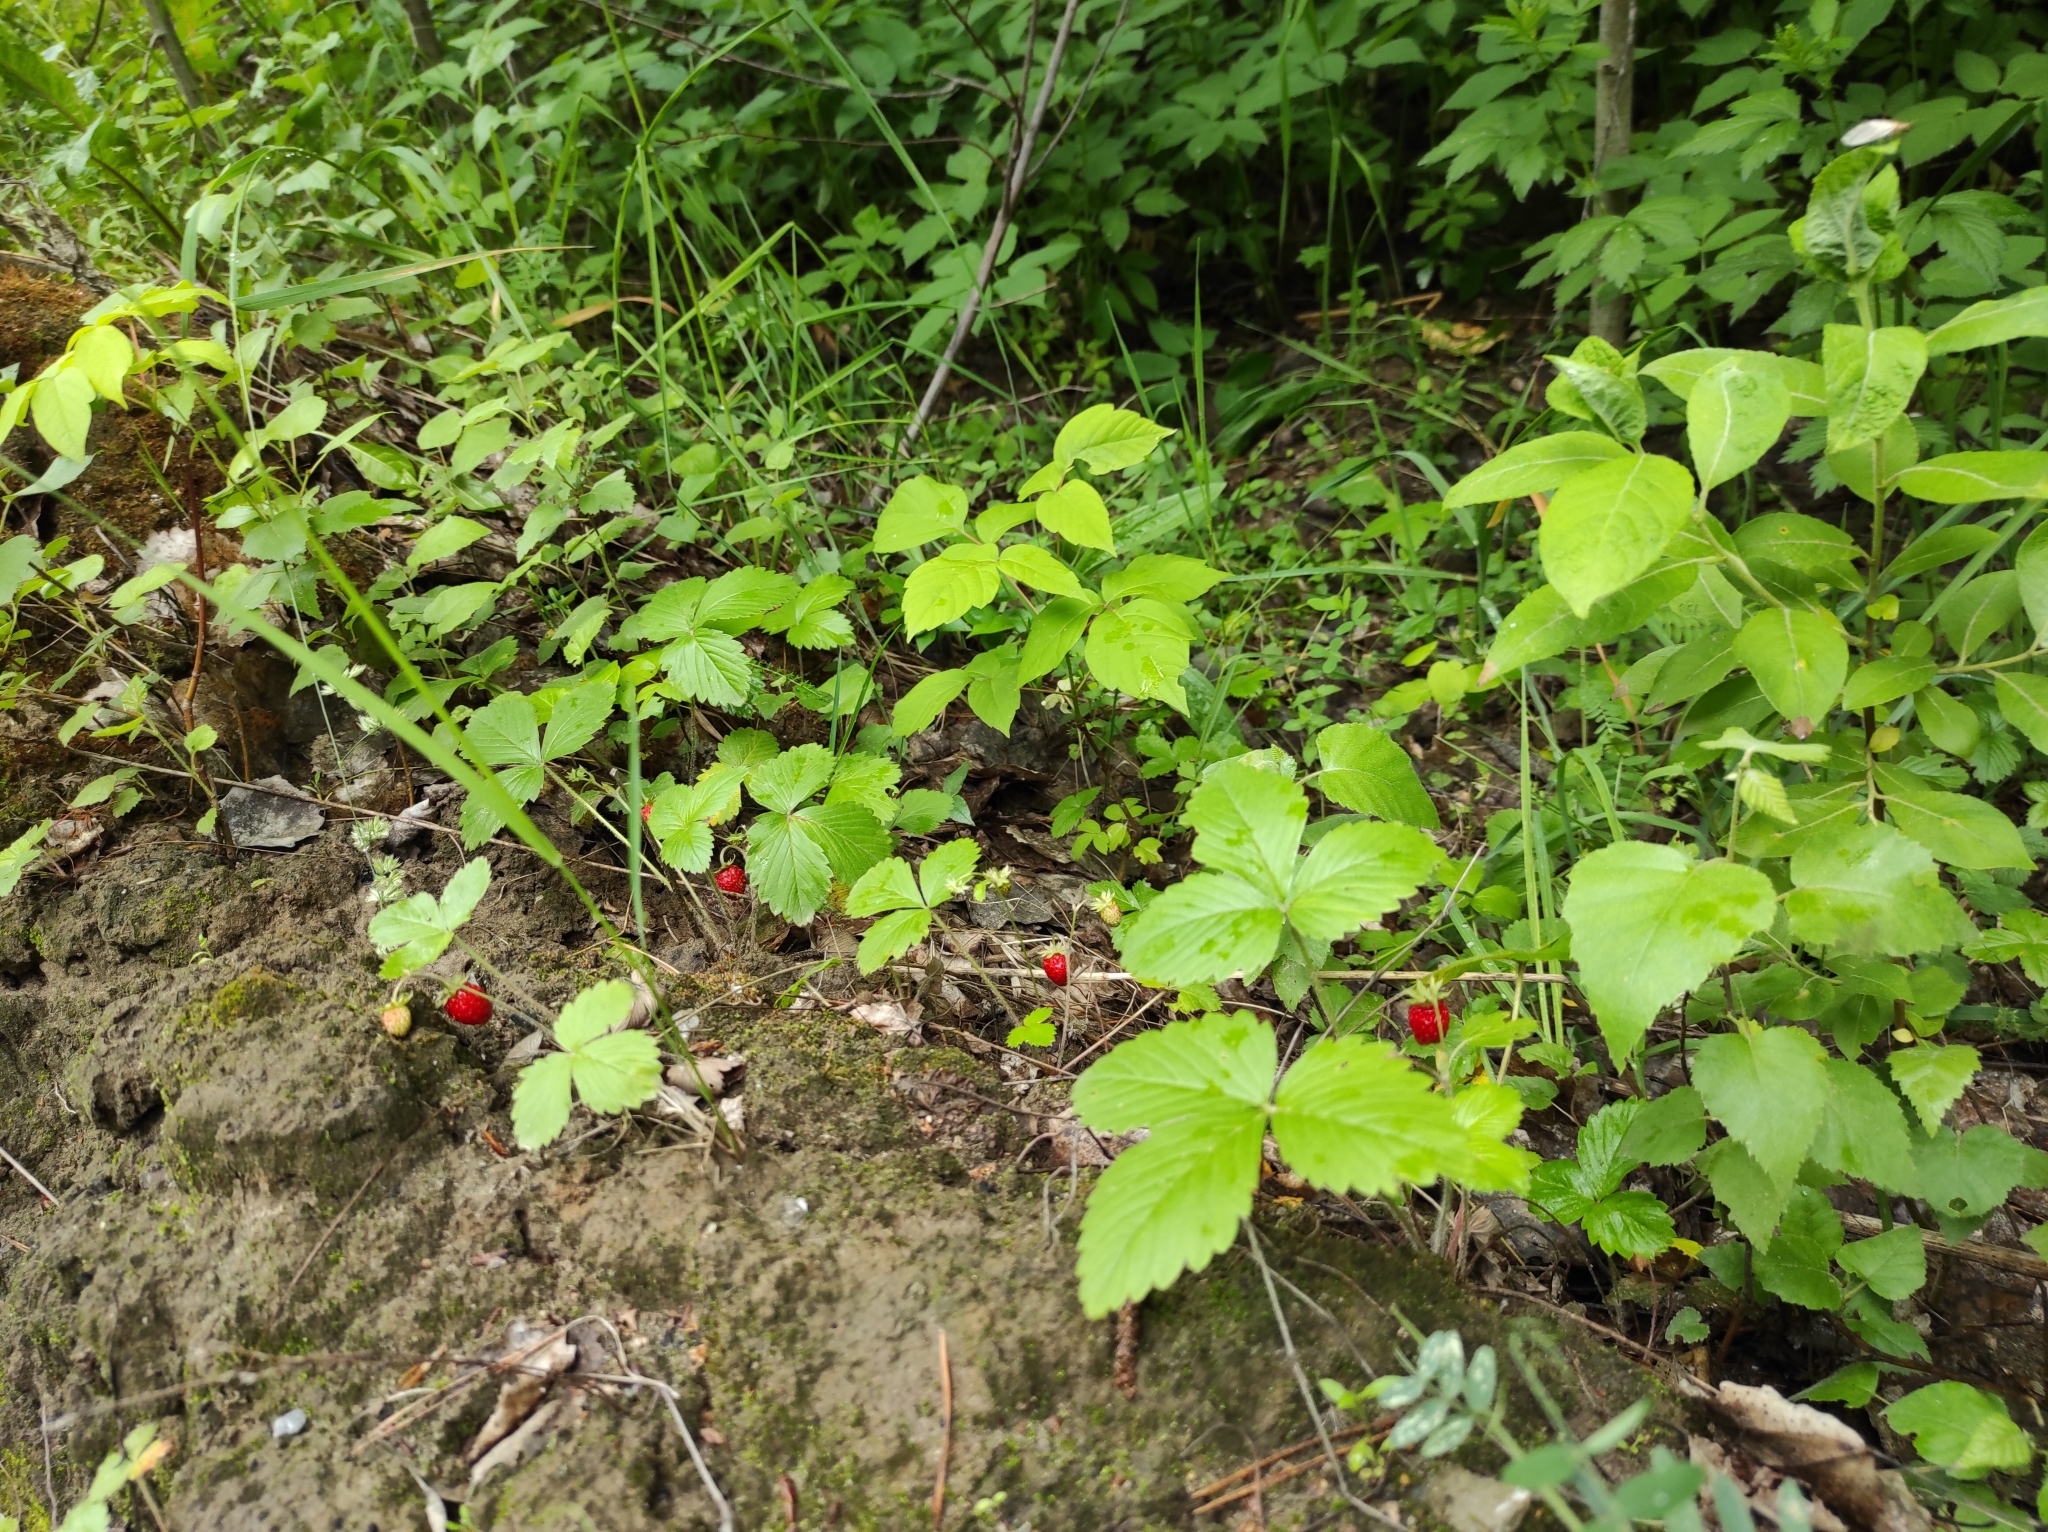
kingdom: Plantae
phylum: Tracheophyta
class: Magnoliopsida
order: Rosales
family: Rosaceae
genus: Fragaria
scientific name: Fragaria vesca
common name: Wild strawberry
